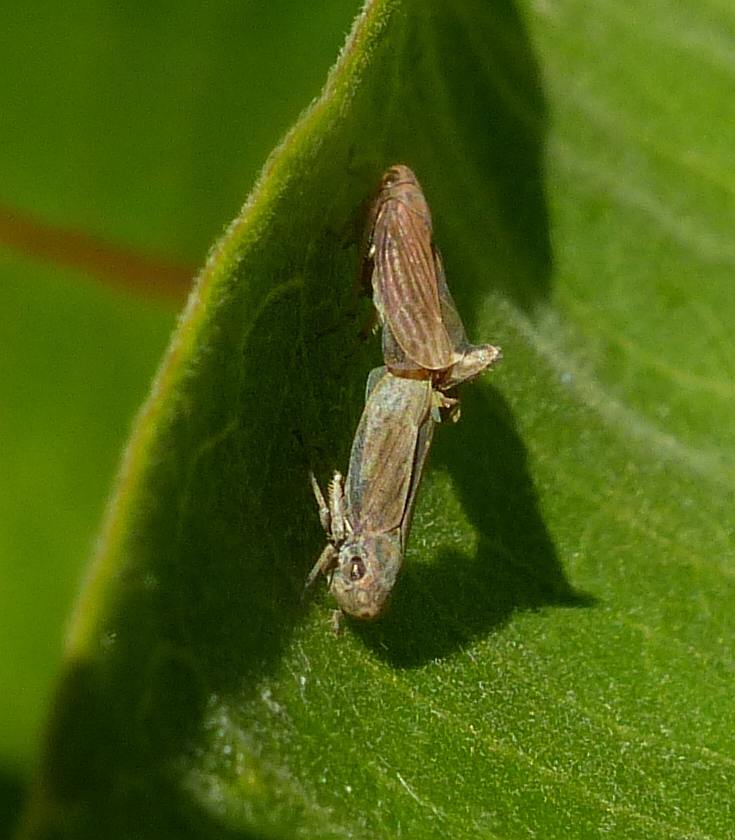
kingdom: Animalia
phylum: Arthropoda
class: Insecta
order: Hemiptera
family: Cicadellidae
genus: Neokolla
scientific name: Neokolla hieroglyphica
